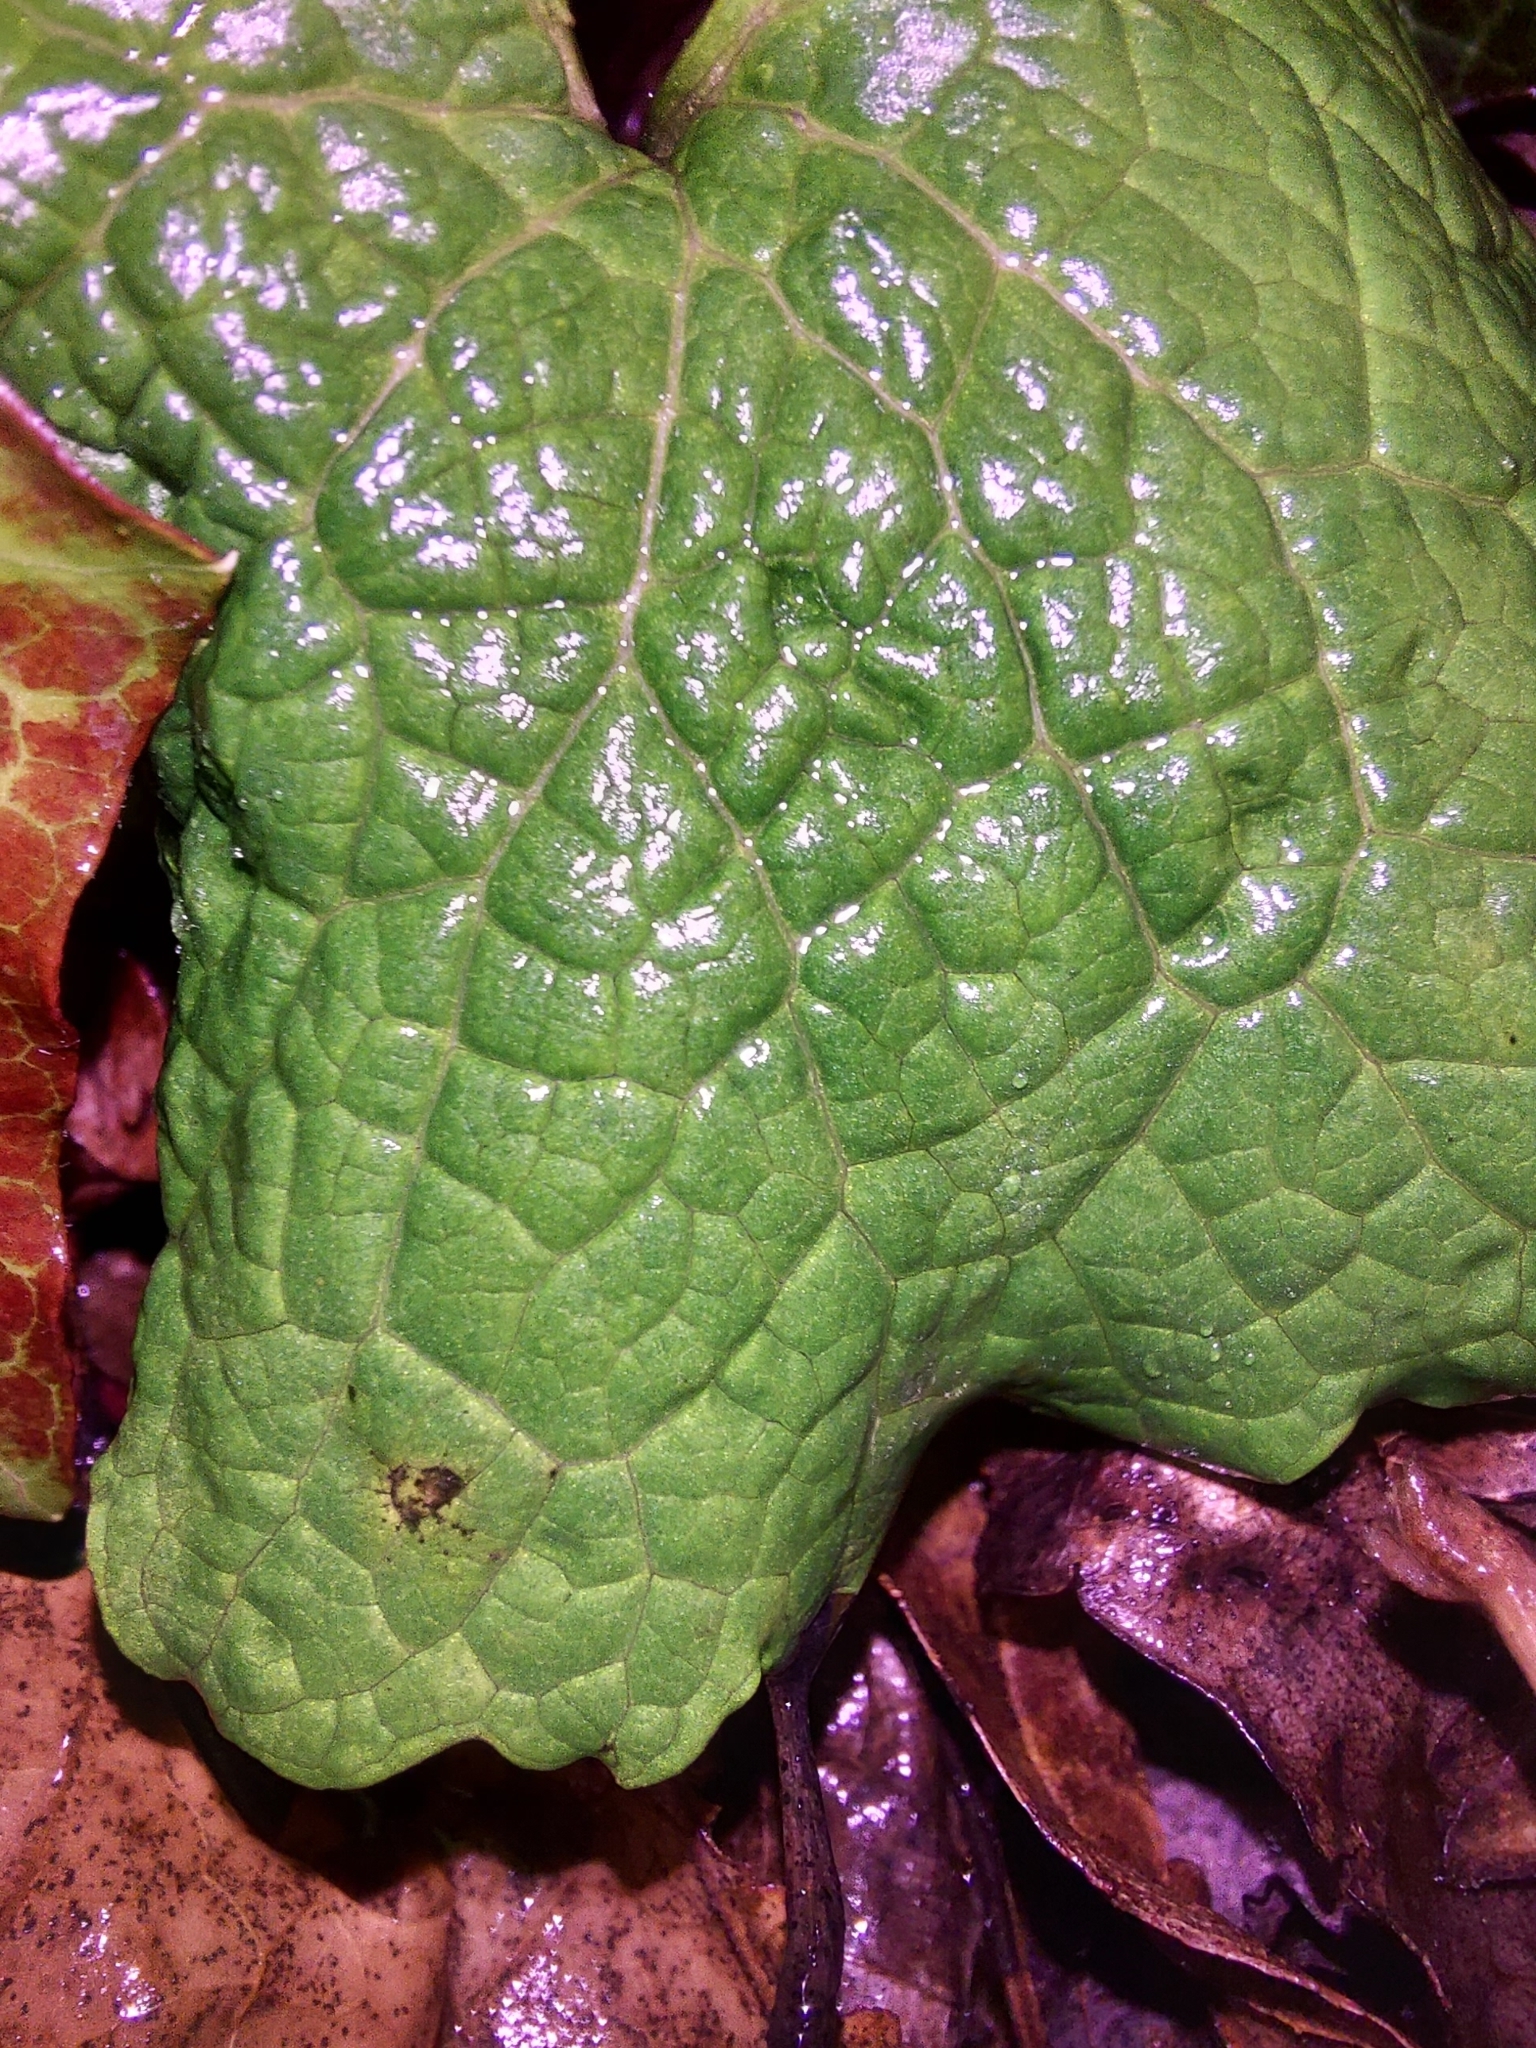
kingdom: Plantae
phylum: Tracheophyta
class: Magnoliopsida
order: Brassicales
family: Brassicaceae
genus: Alliaria
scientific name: Alliaria petiolata
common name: Garlic mustard
